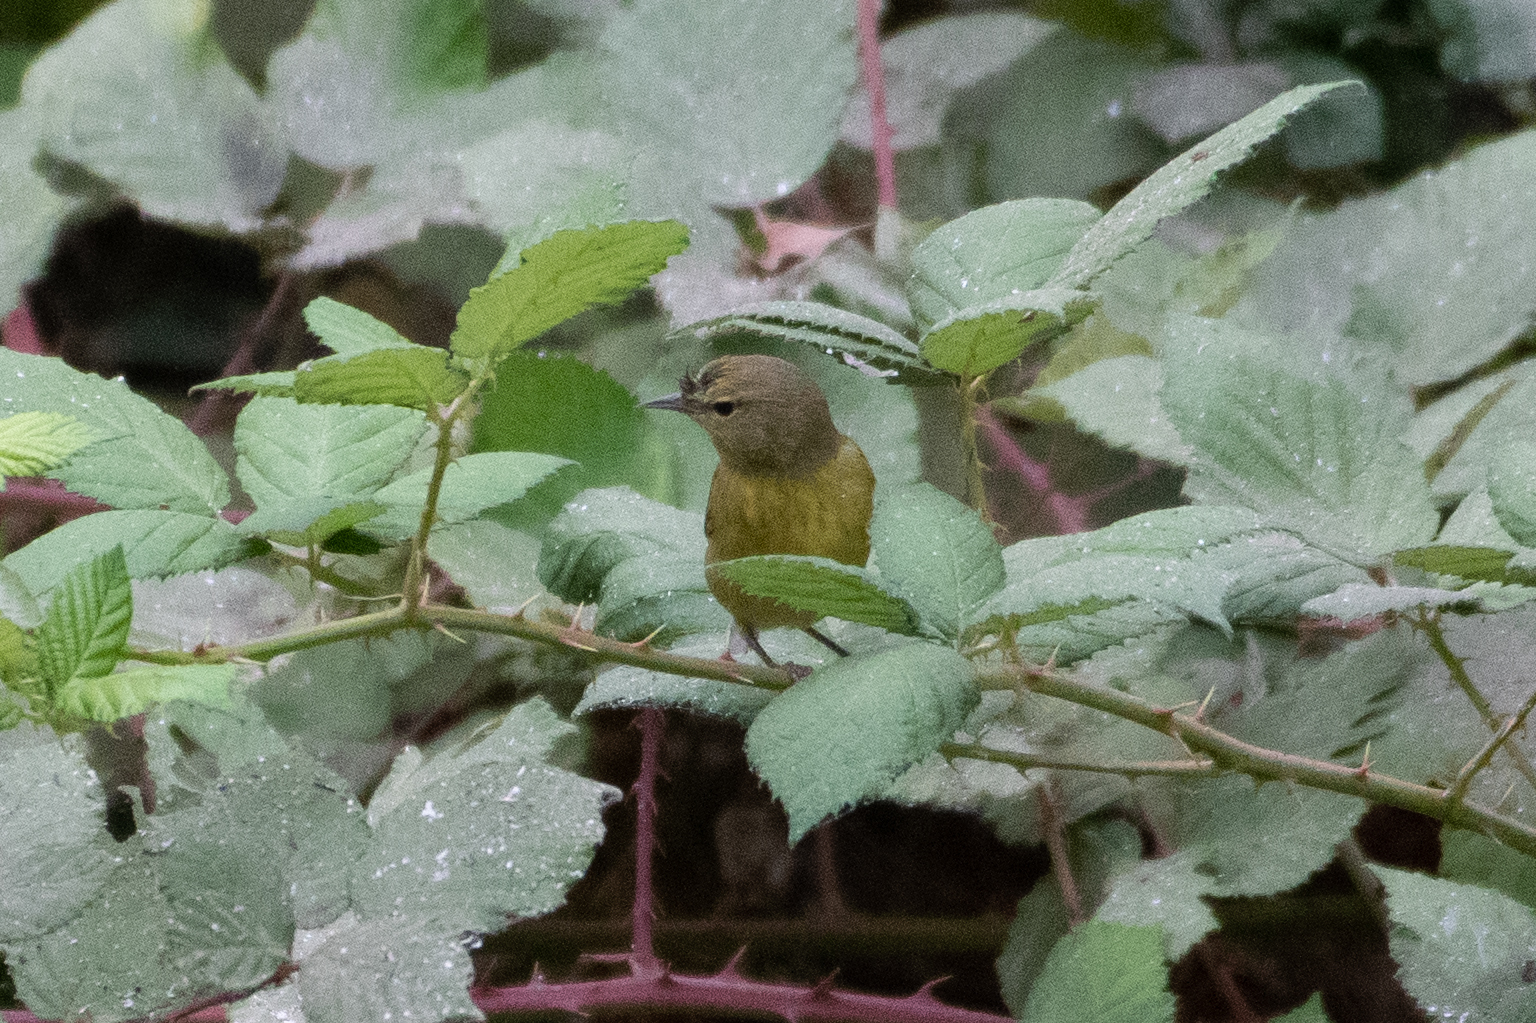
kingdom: Animalia
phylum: Chordata
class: Aves
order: Passeriformes
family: Parulidae
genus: Leiothlypis
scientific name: Leiothlypis celata
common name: Orange-crowned warbler
